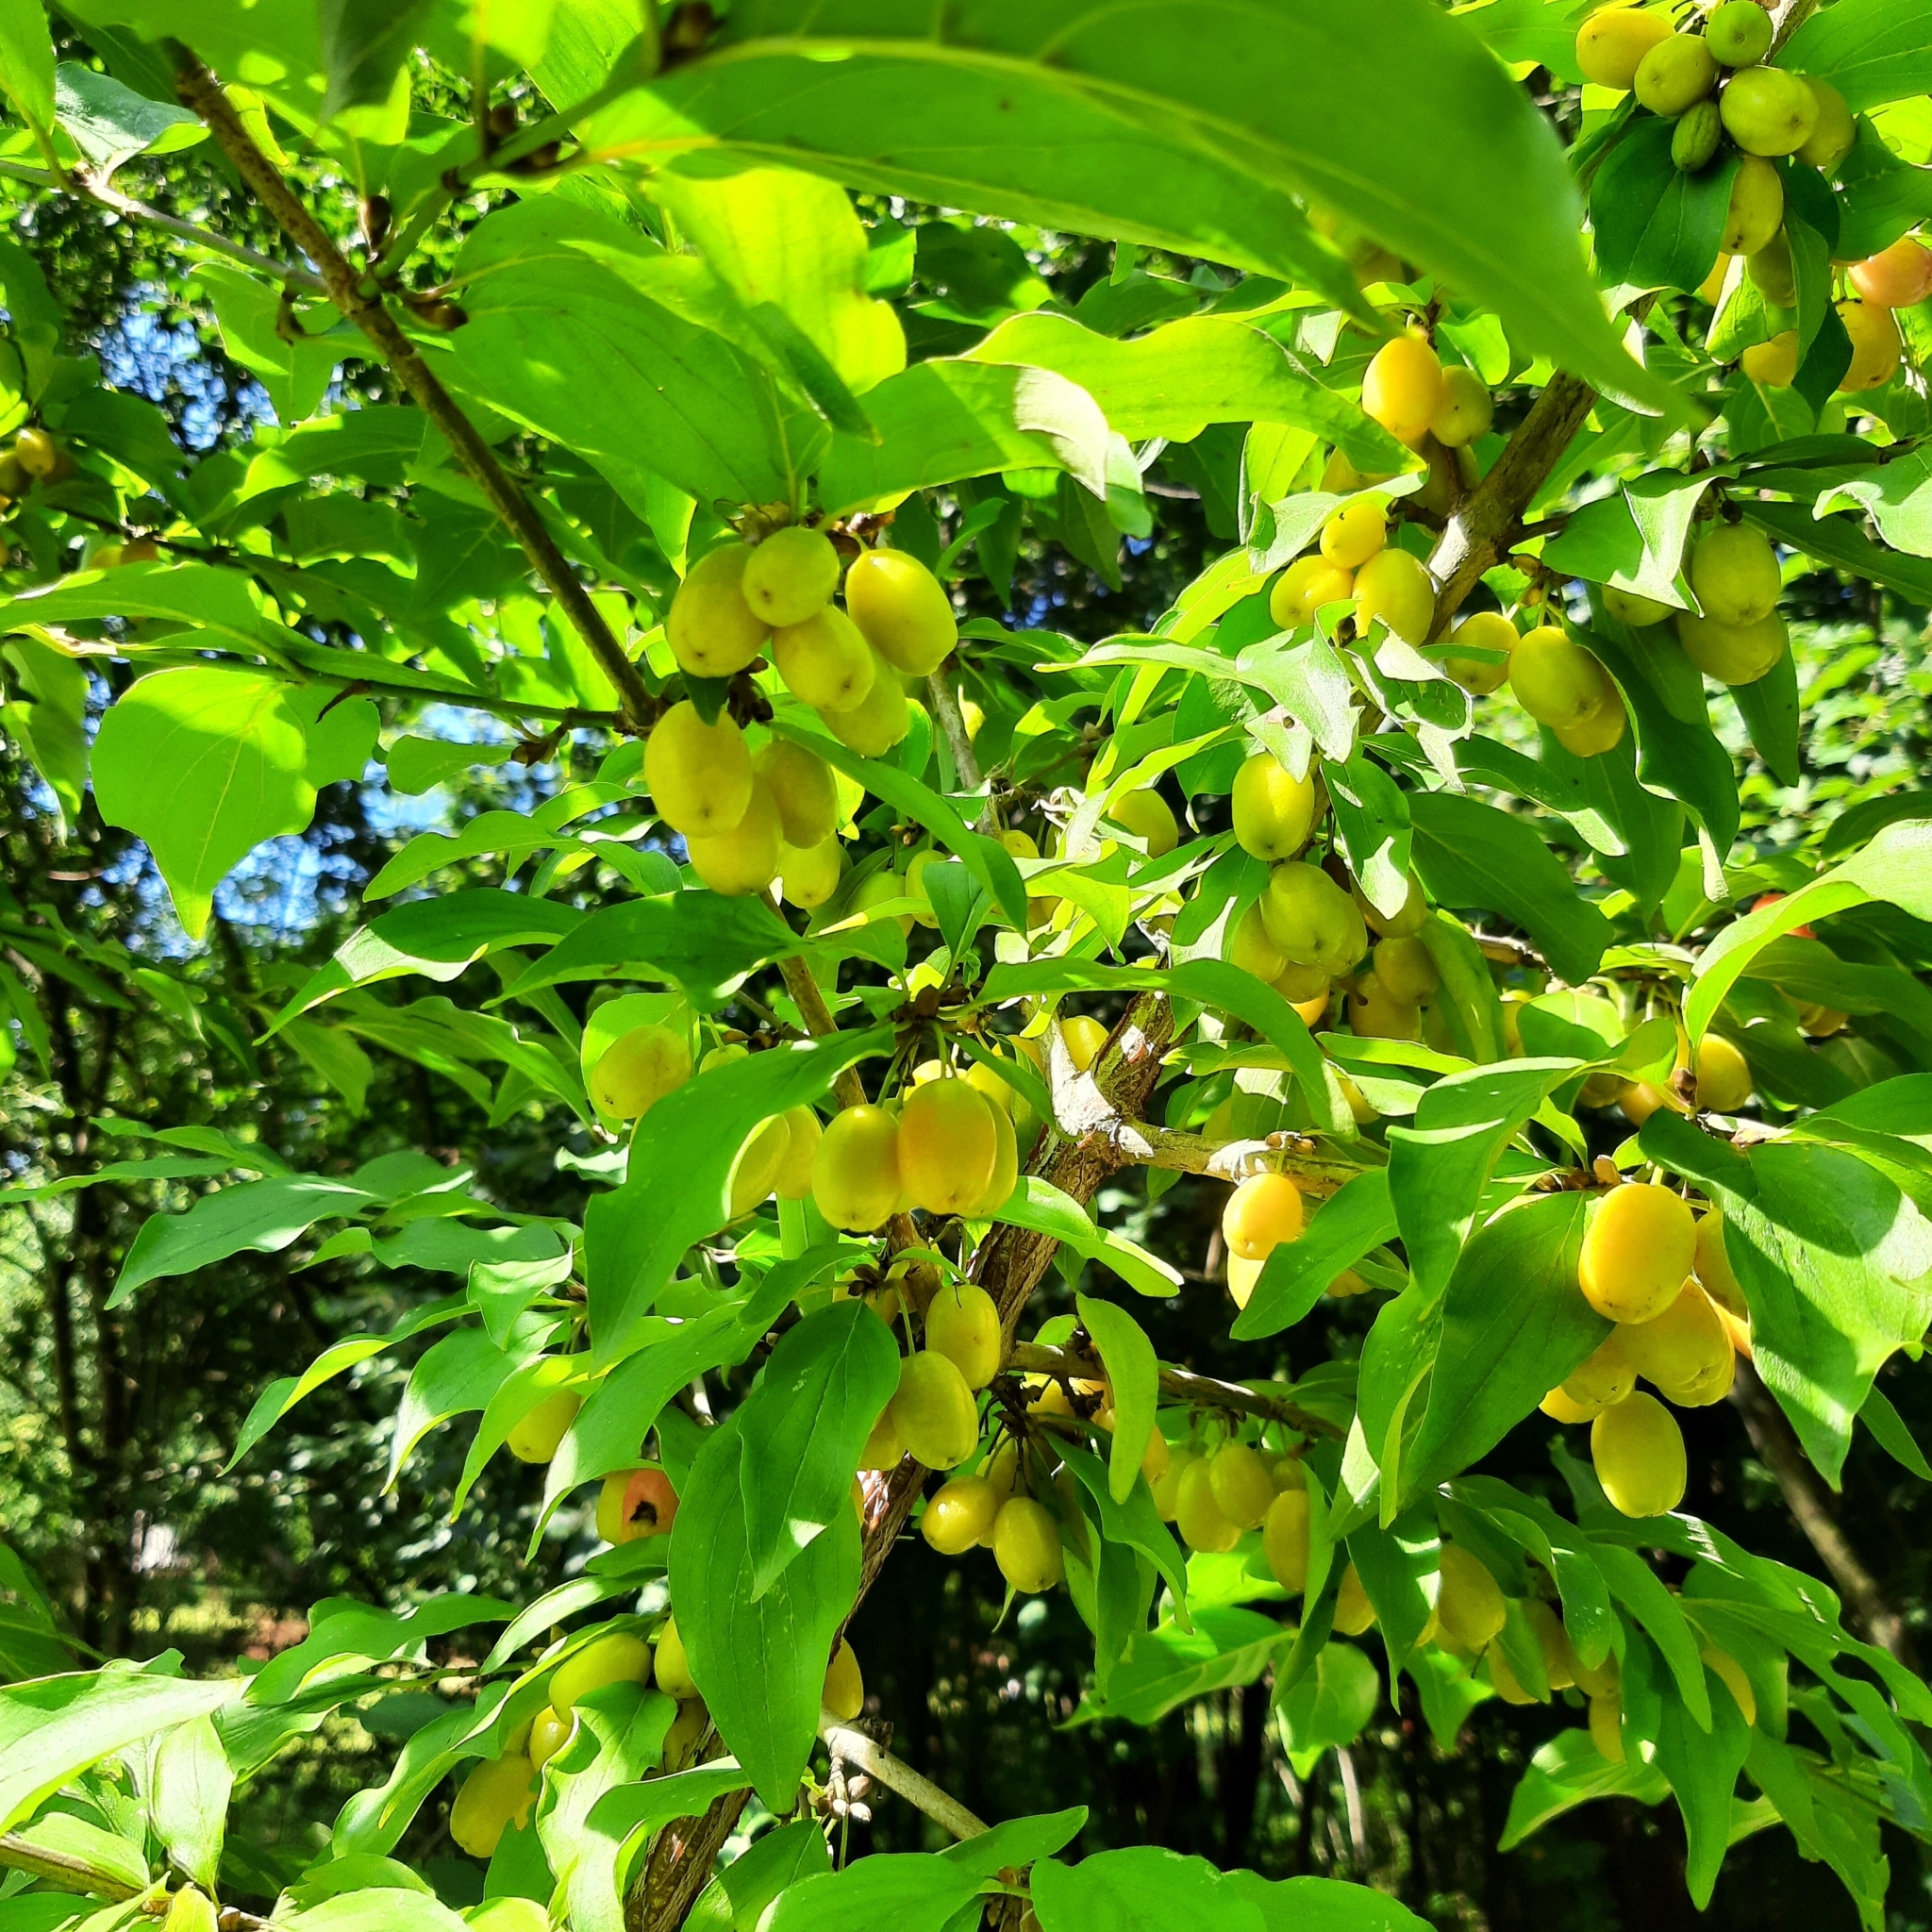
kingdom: Plantae
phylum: Tracheophyta
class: Magnoliopsida
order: Cornales
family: Cornaceae
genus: Cornus
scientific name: Cornus mas
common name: Cornelian-cherry
